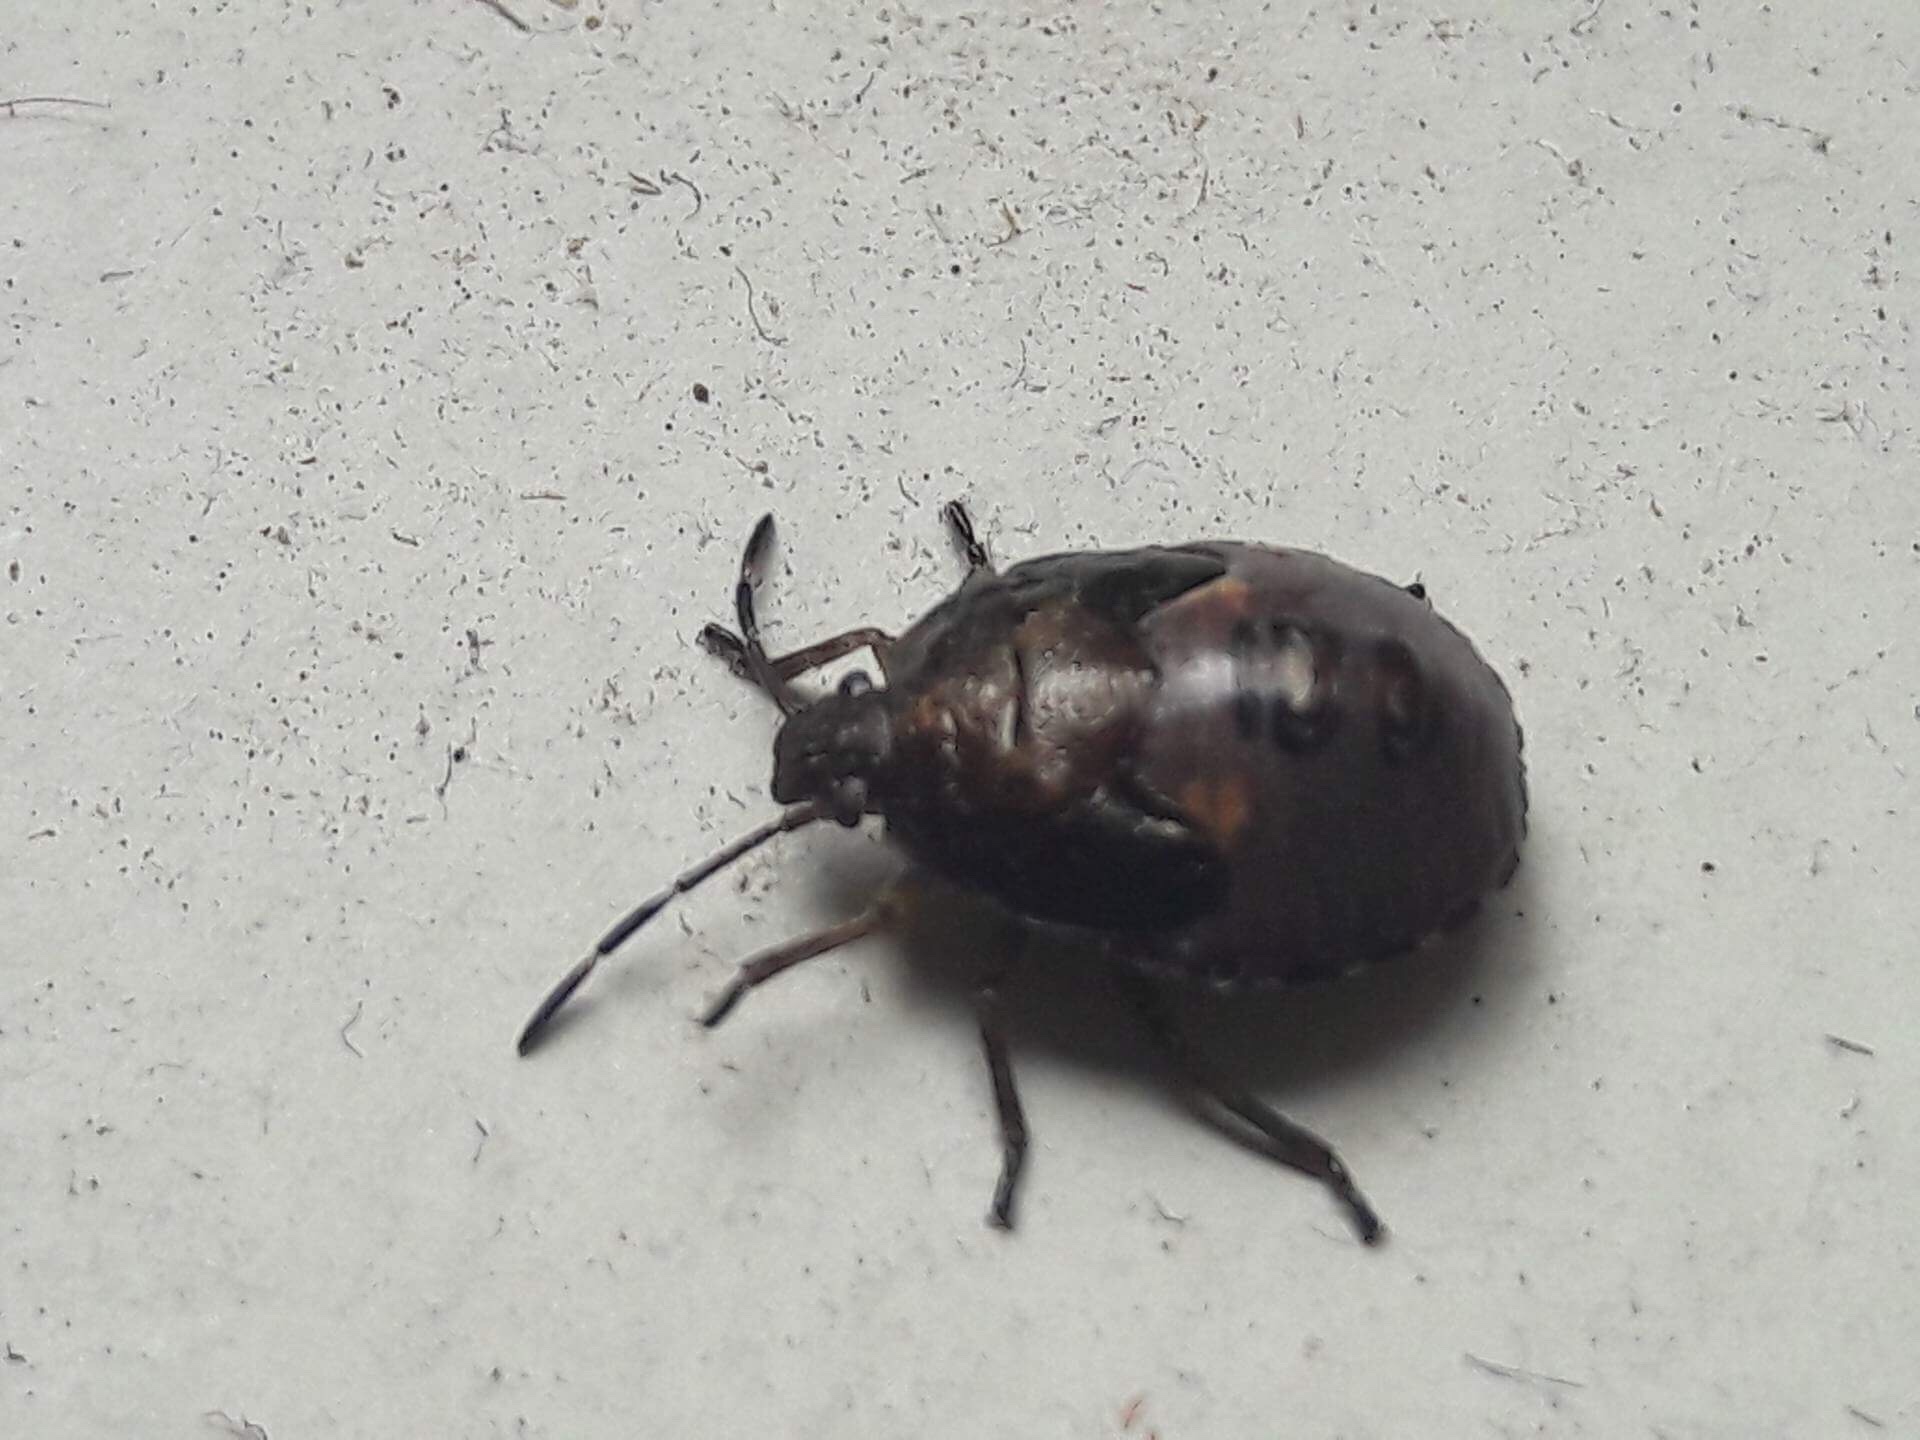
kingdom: Animalia
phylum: Arthropoda
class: Insecta
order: Hemiptera
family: Pentatomidae
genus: Monteithiella
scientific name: Monteithiella
